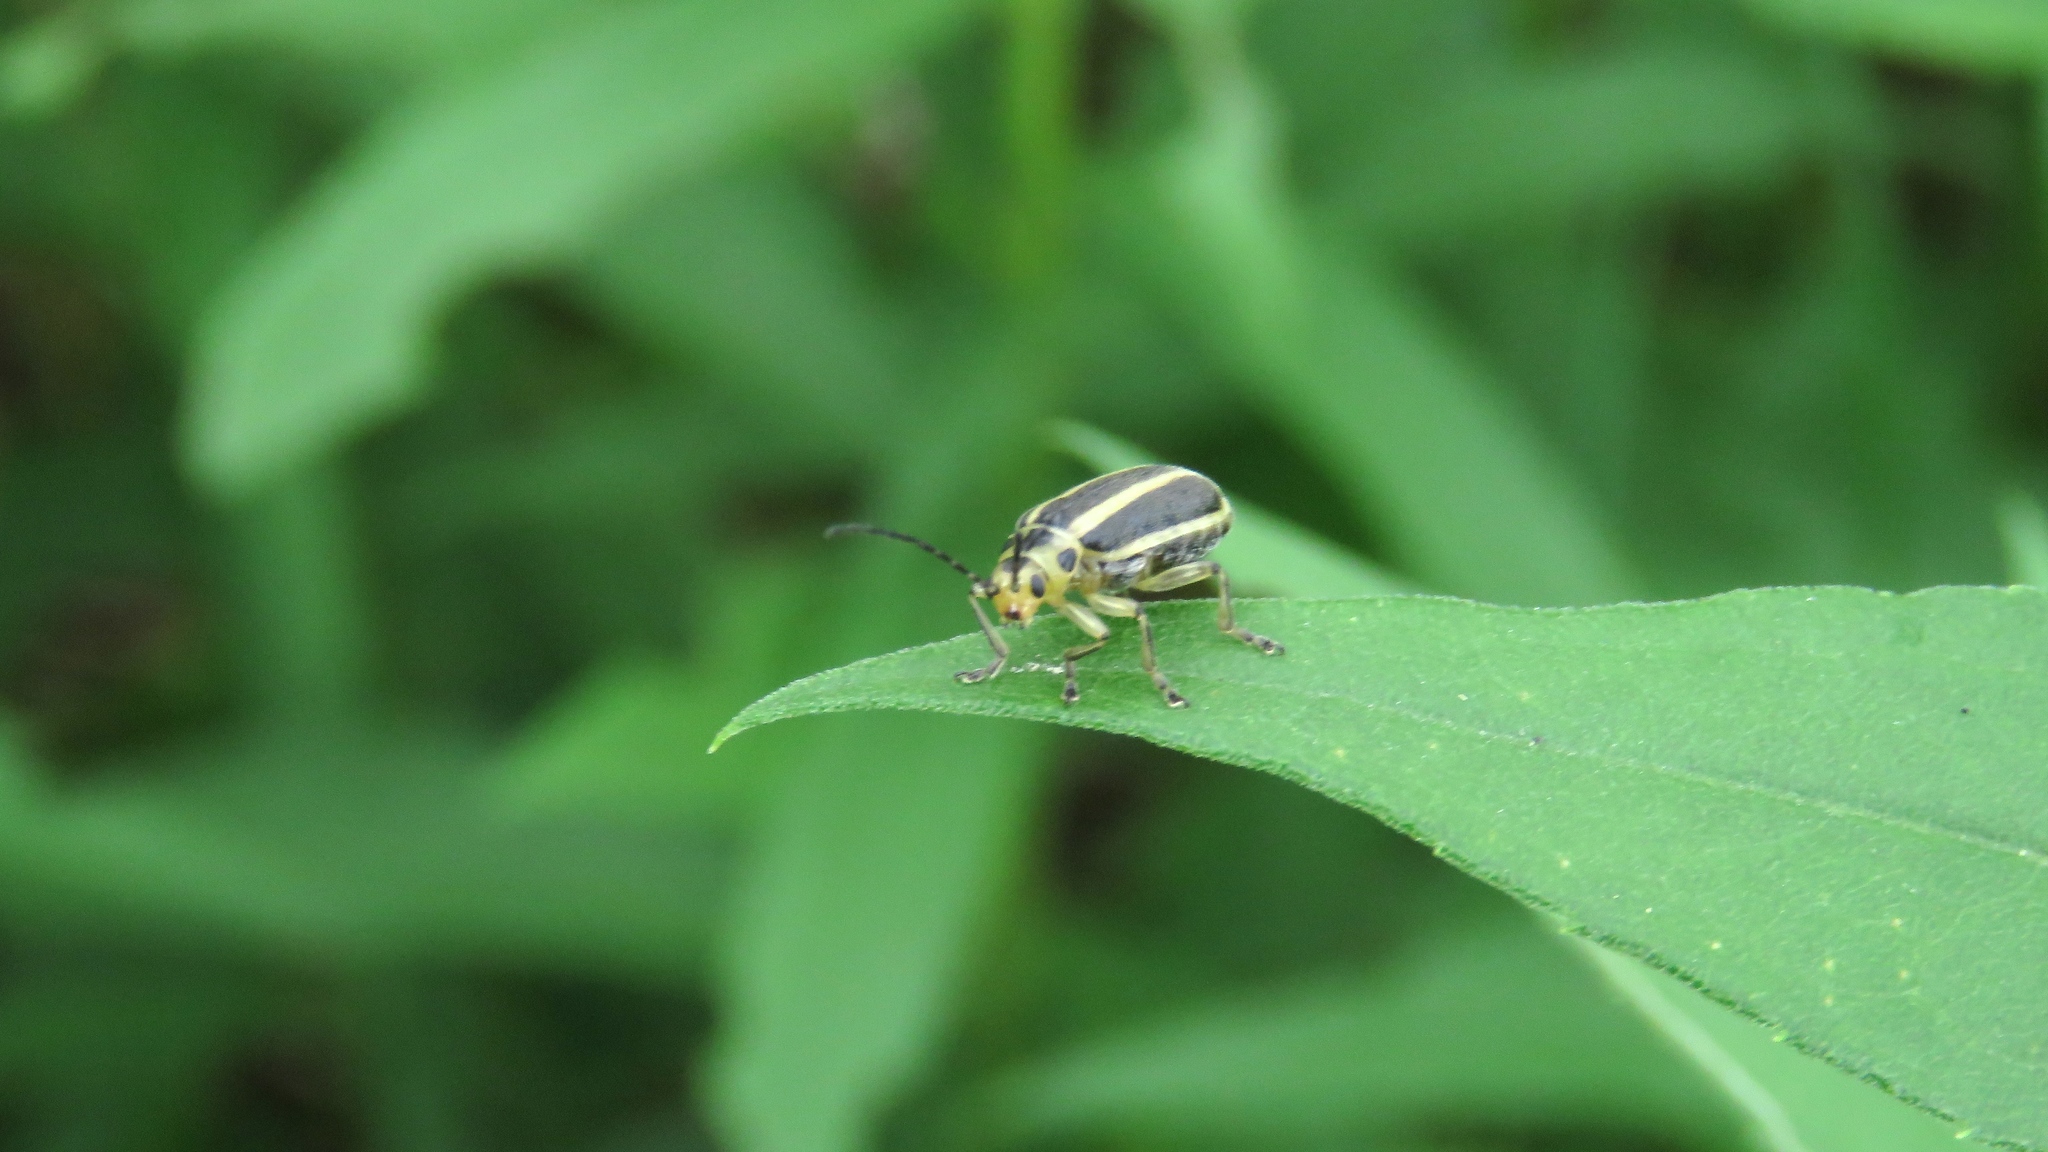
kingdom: Animalia
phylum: Arthropoda
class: Insecta
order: Coleoptera
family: Chrysomelidae
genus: Trirhabda
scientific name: Trirhabda canadensis
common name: Goldenrod leaf beetle
